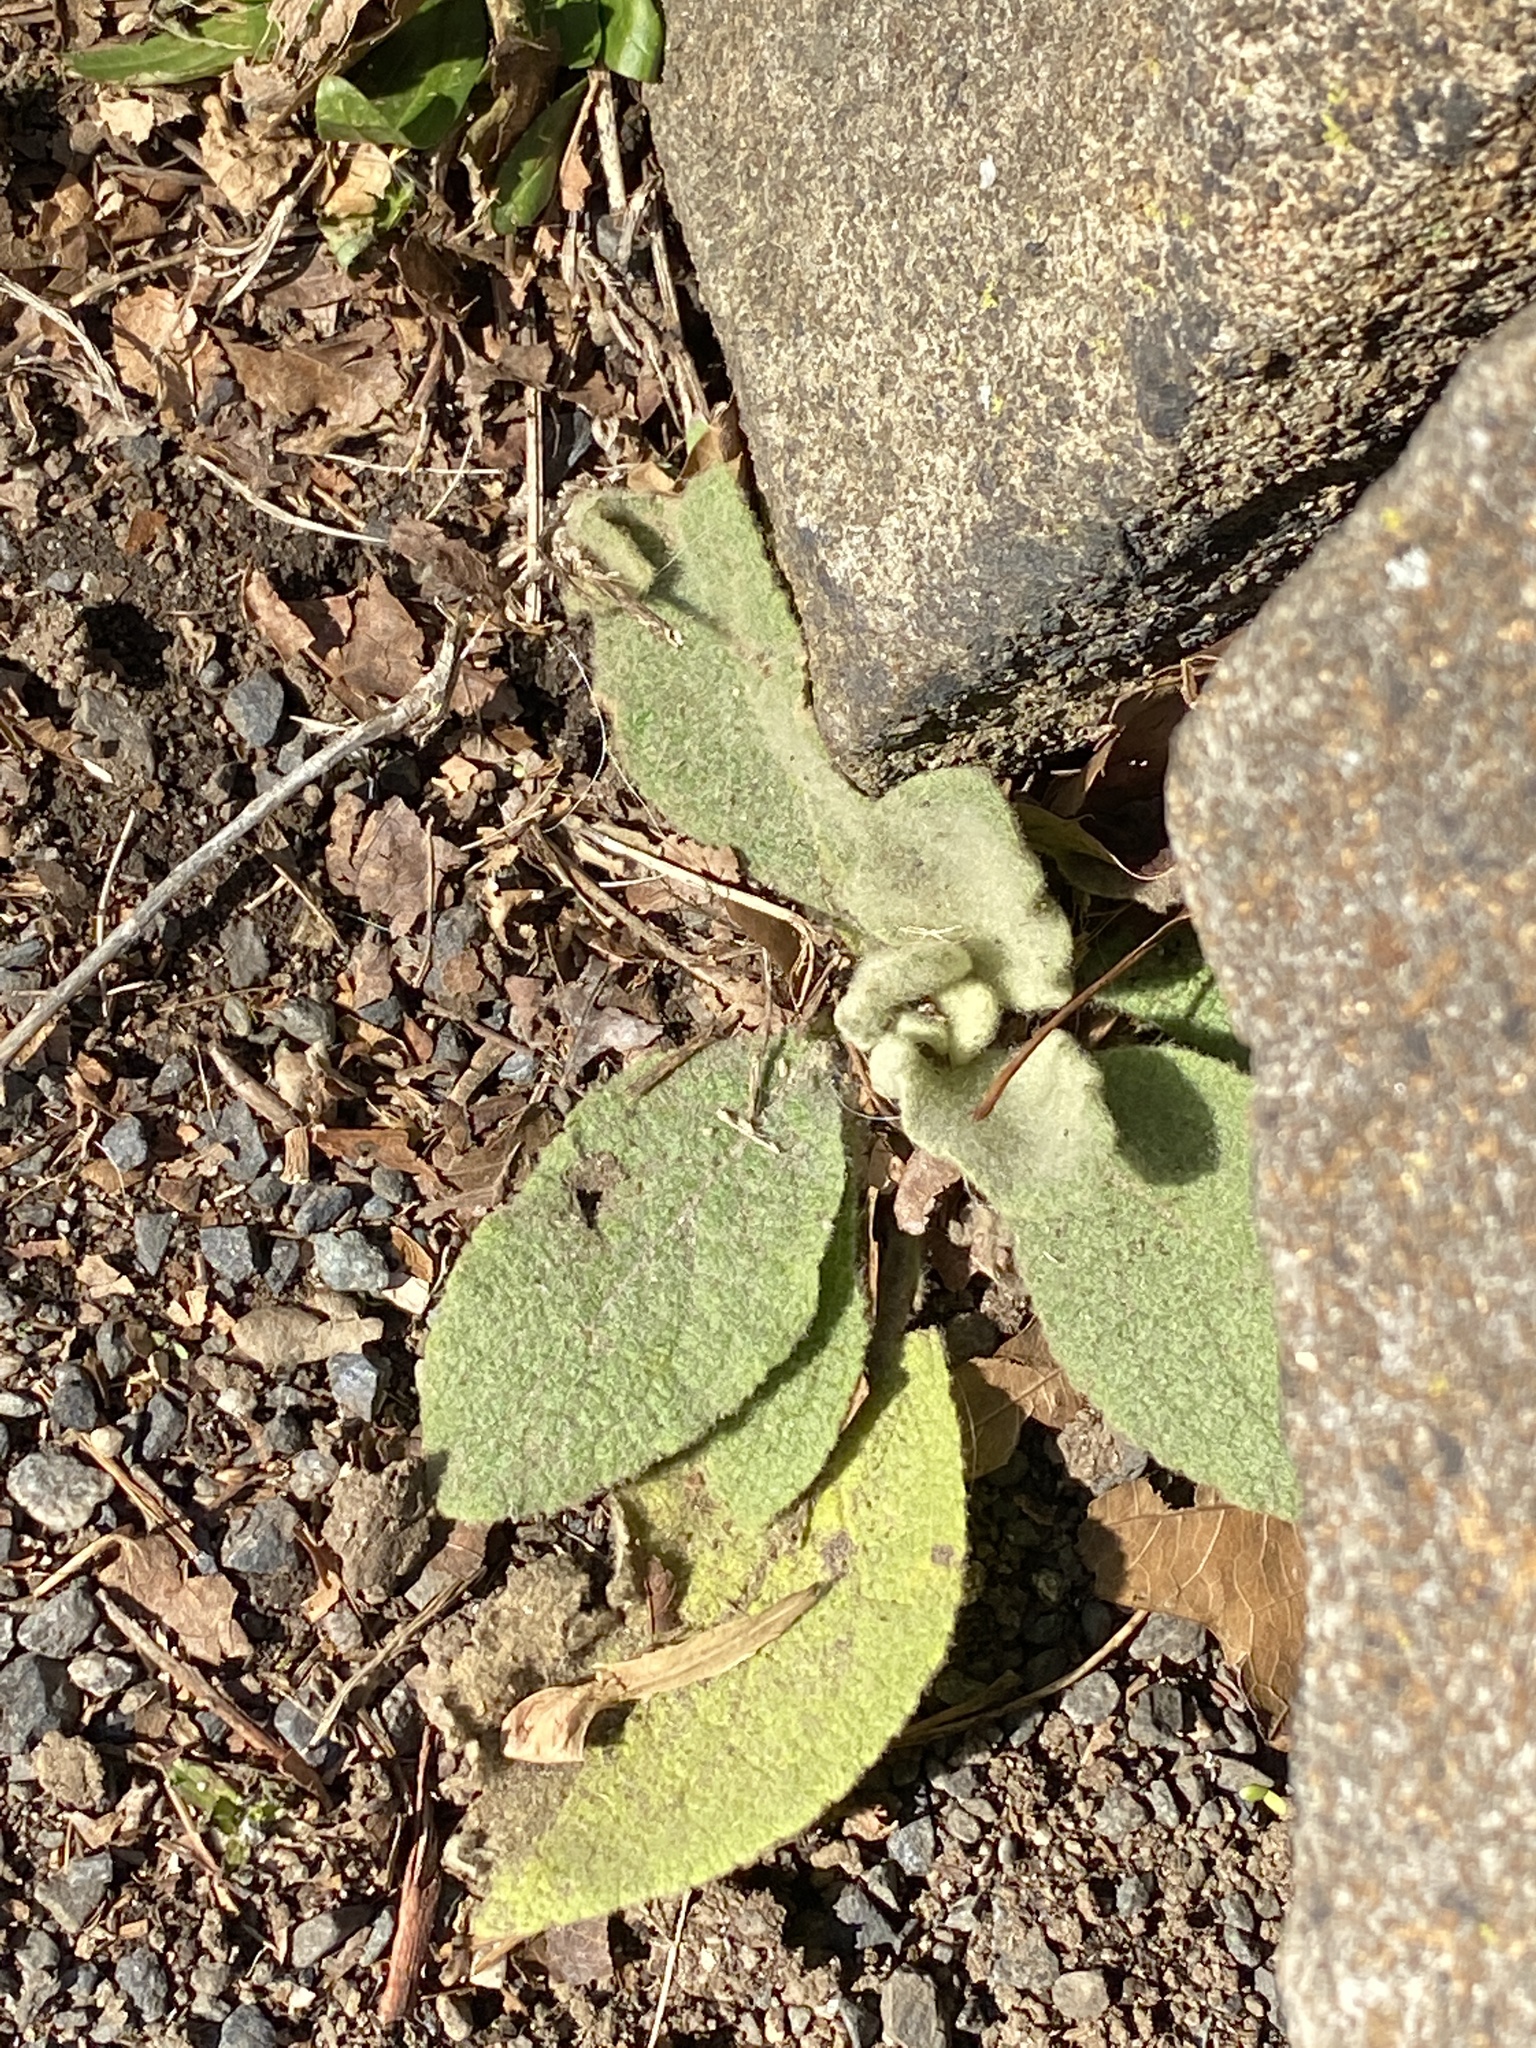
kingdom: Plantae
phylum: Tracheophyta
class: Magnoliopsida
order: Lamiales
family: Scrophulariaceae
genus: Verbascum
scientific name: Verbascum thapsus
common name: Common mullein
